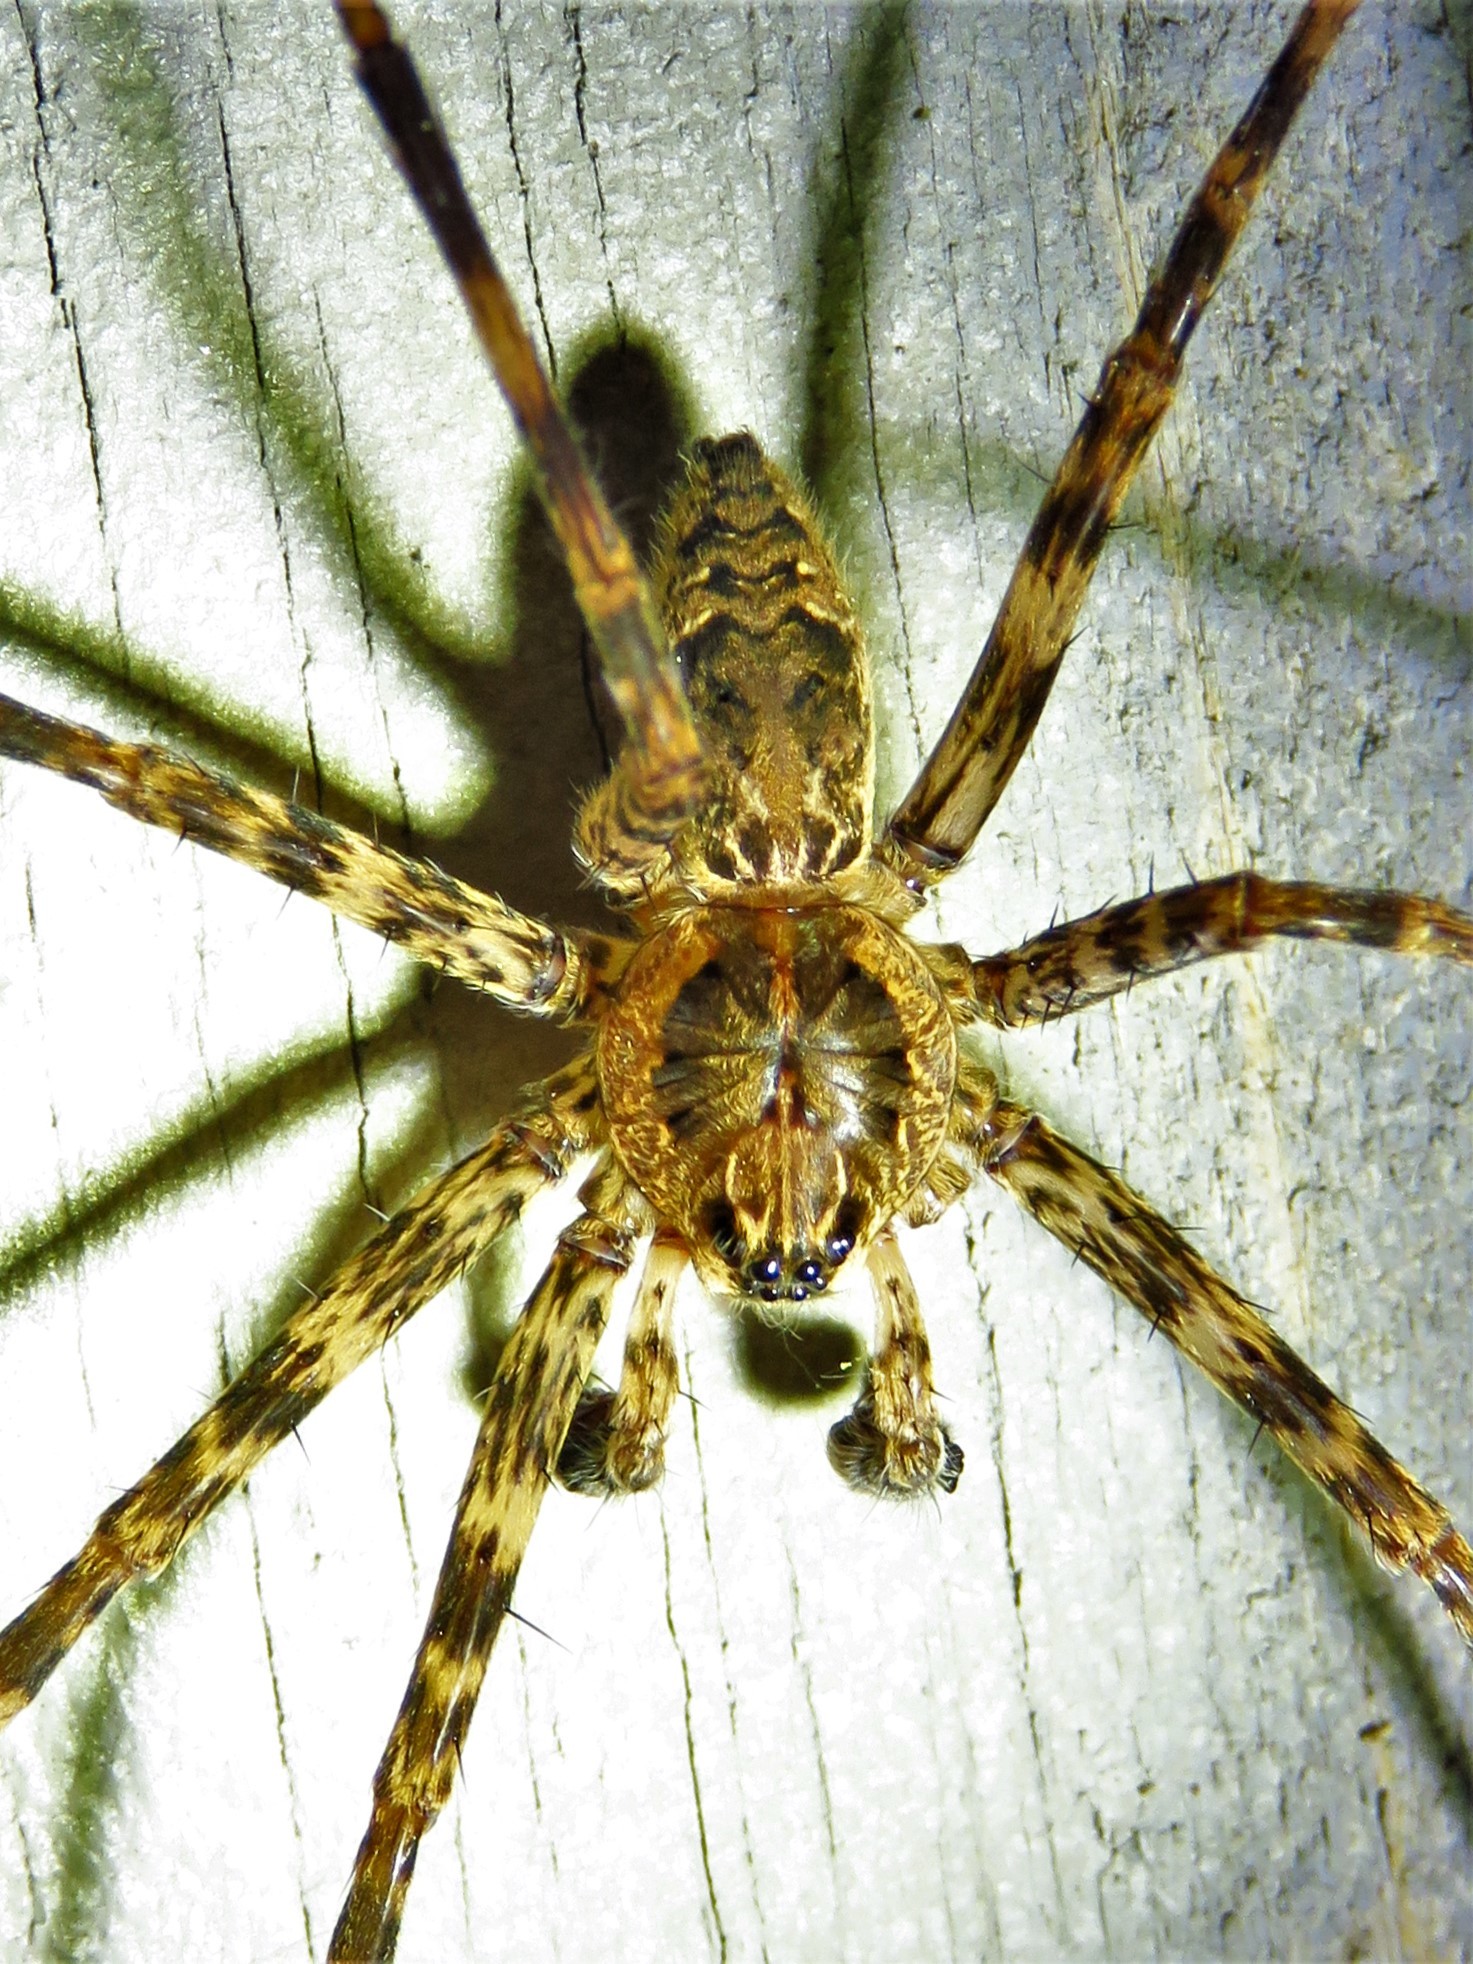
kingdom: Animalia
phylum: Arthropoda
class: Arachnida
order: Araneae
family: Pisauridae
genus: Dolomedes
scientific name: Dolomedes tenebrosus
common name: Dark fishing spider
